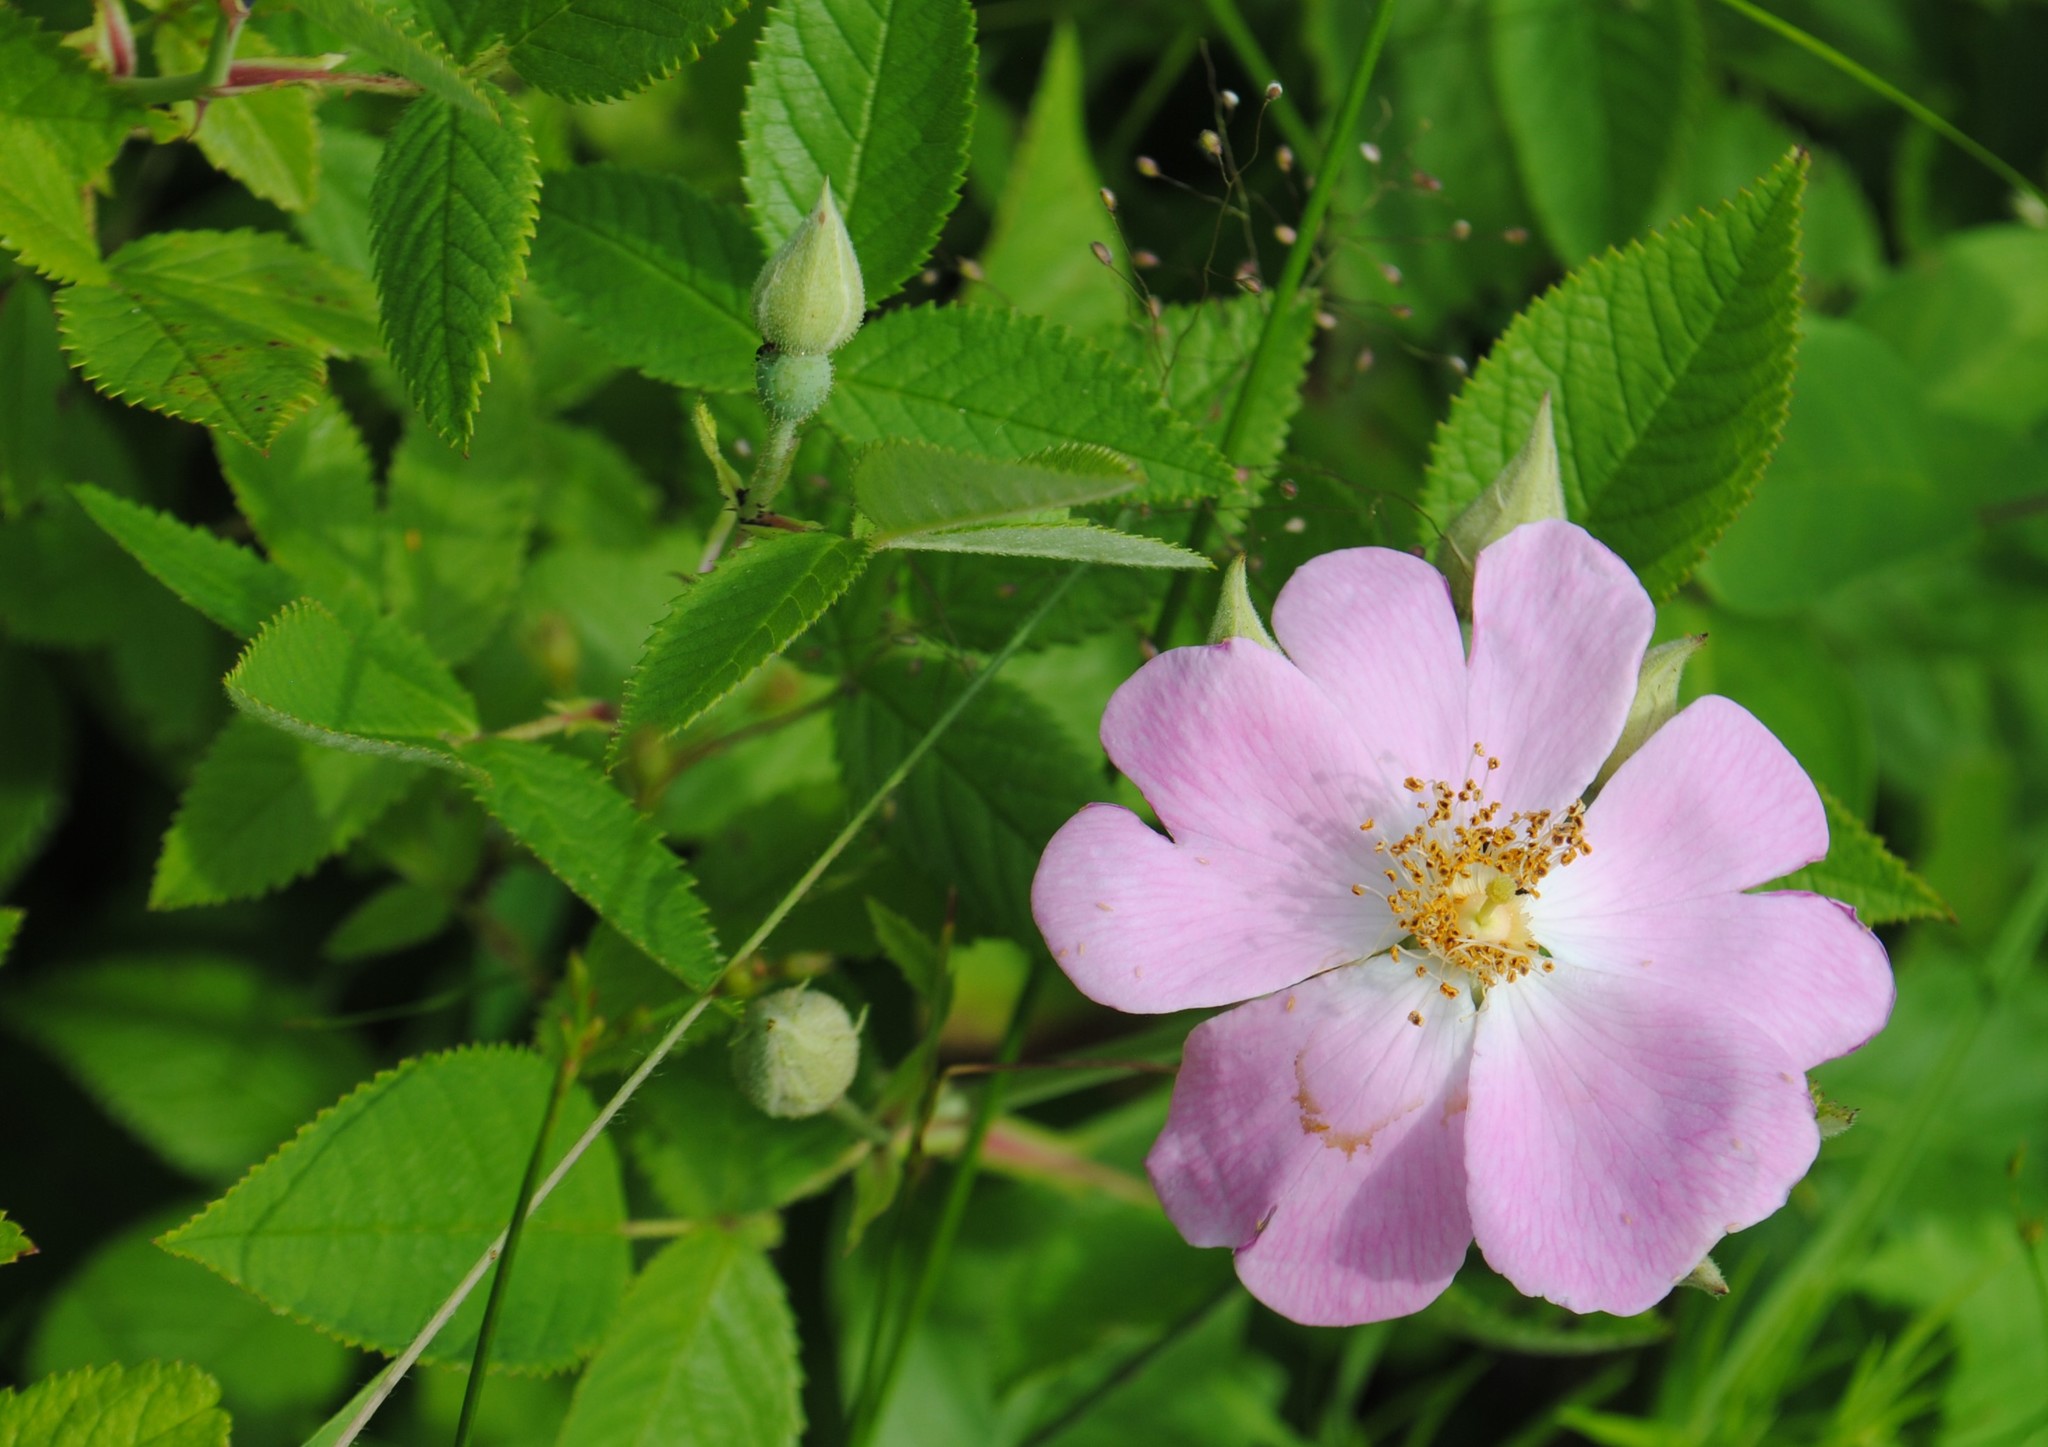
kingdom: Plantae
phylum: Tracheophyta
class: Magnoliopsida
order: Rosales
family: Rosaceae
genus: Rosa
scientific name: Rosa setigera
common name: Prairie rose
